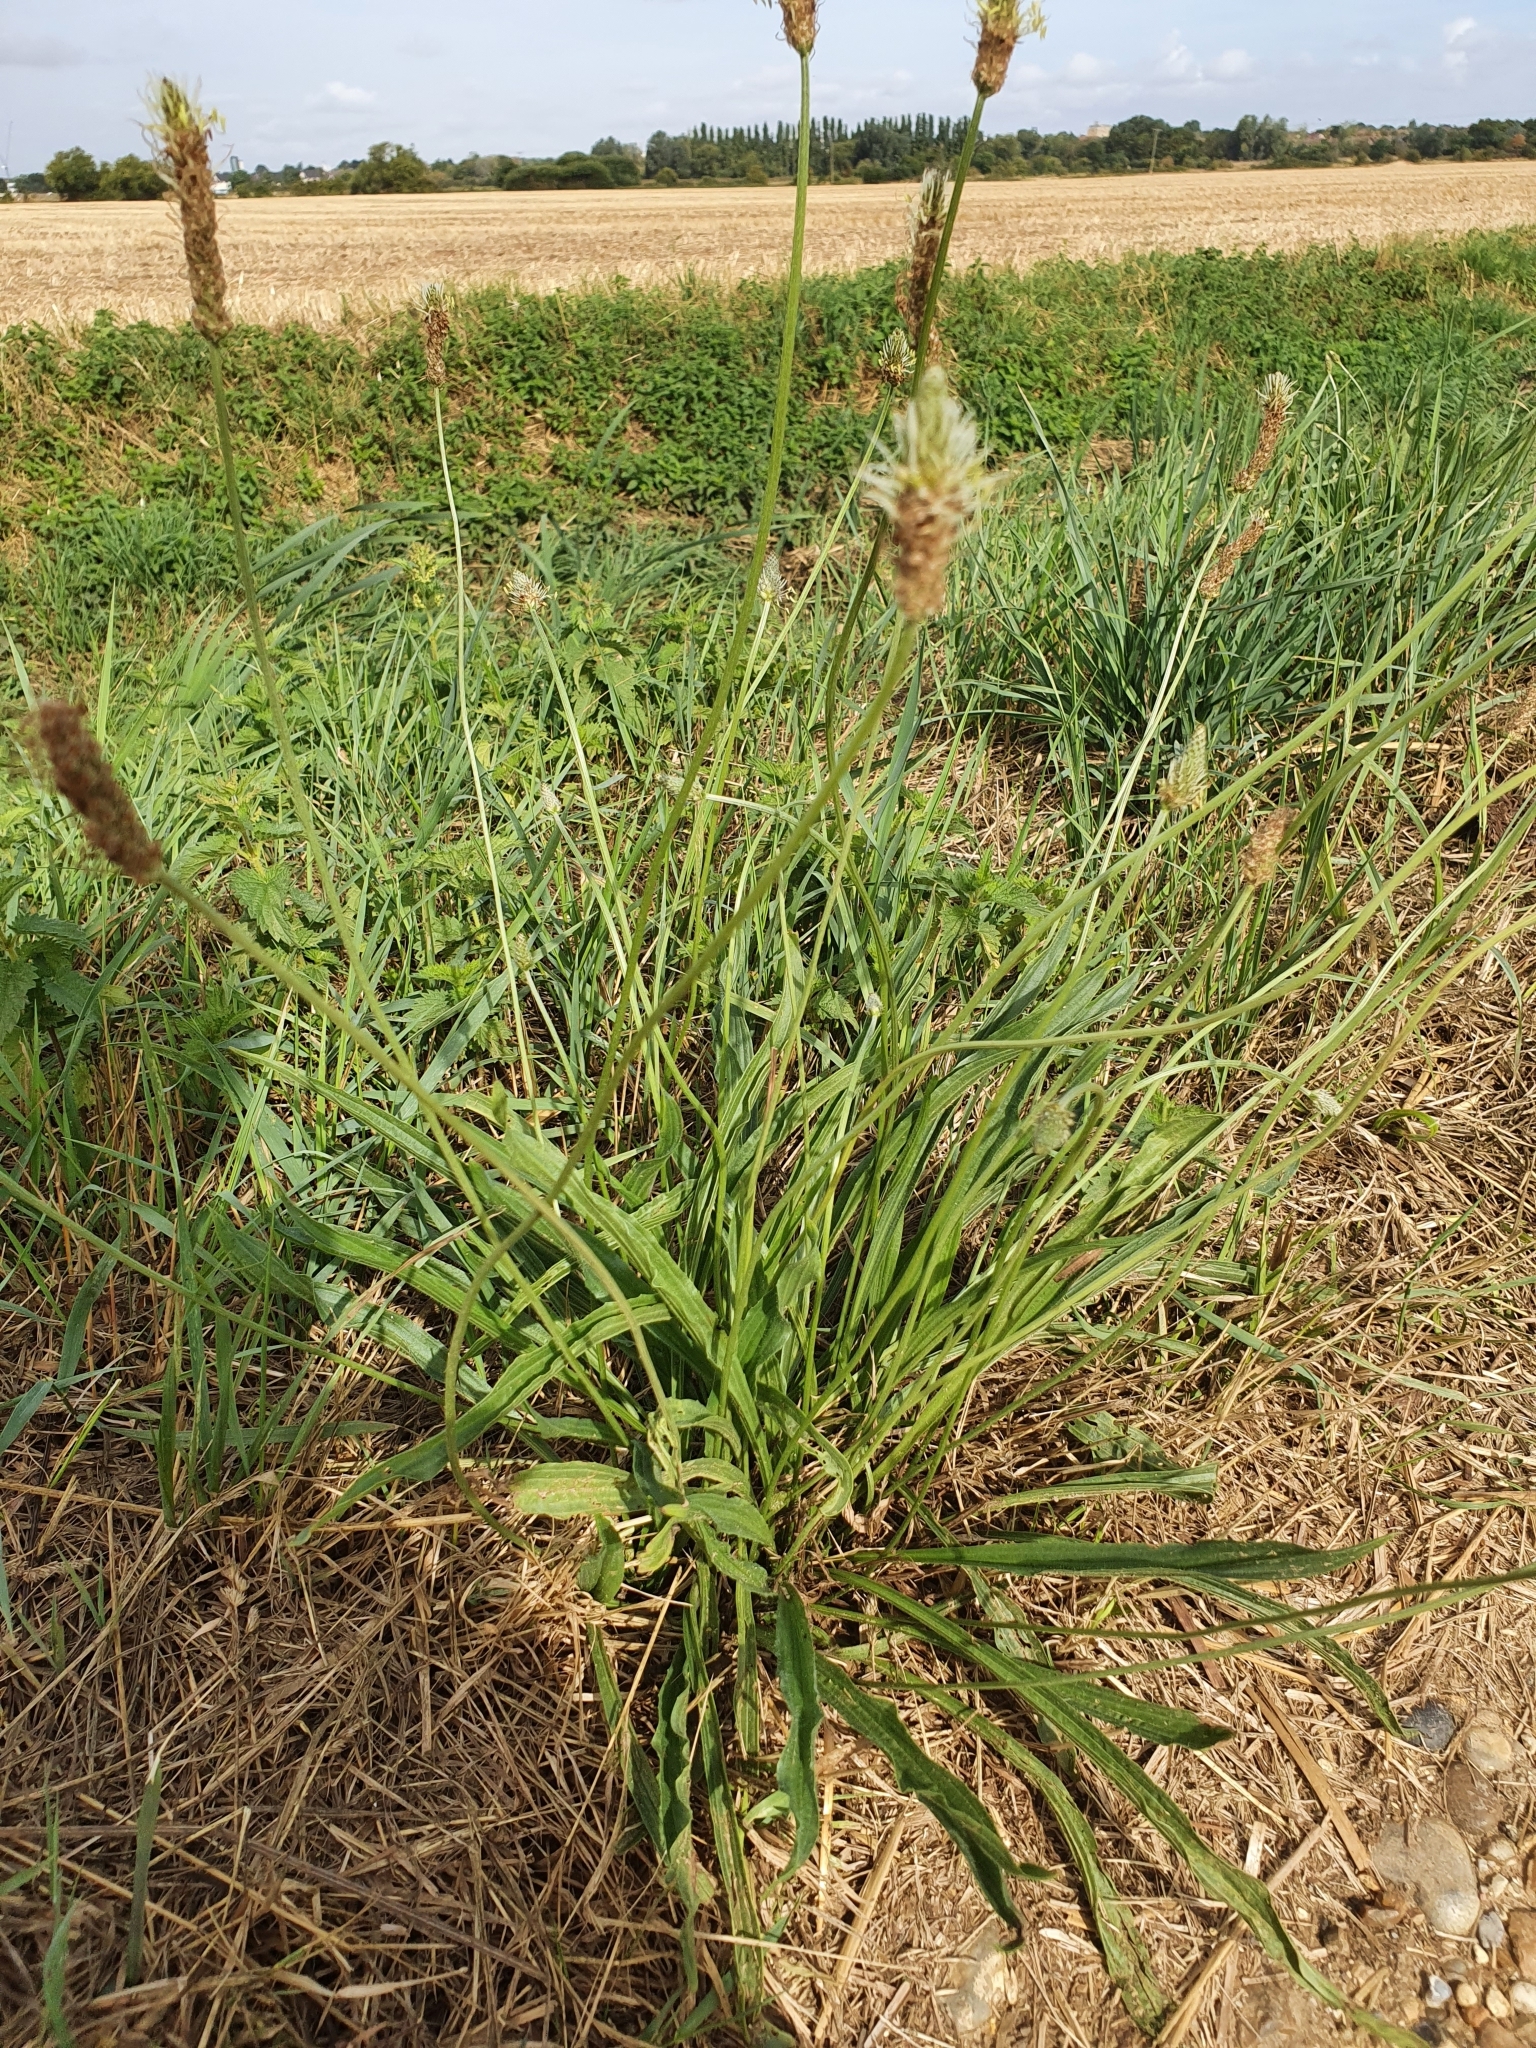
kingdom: Plantae
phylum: Tracheophyta
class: Magnoliopsida
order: Lamiales
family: Plantaginaceae
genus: Plantago
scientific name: Plantago lanceolata
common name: Ribwort plantain
